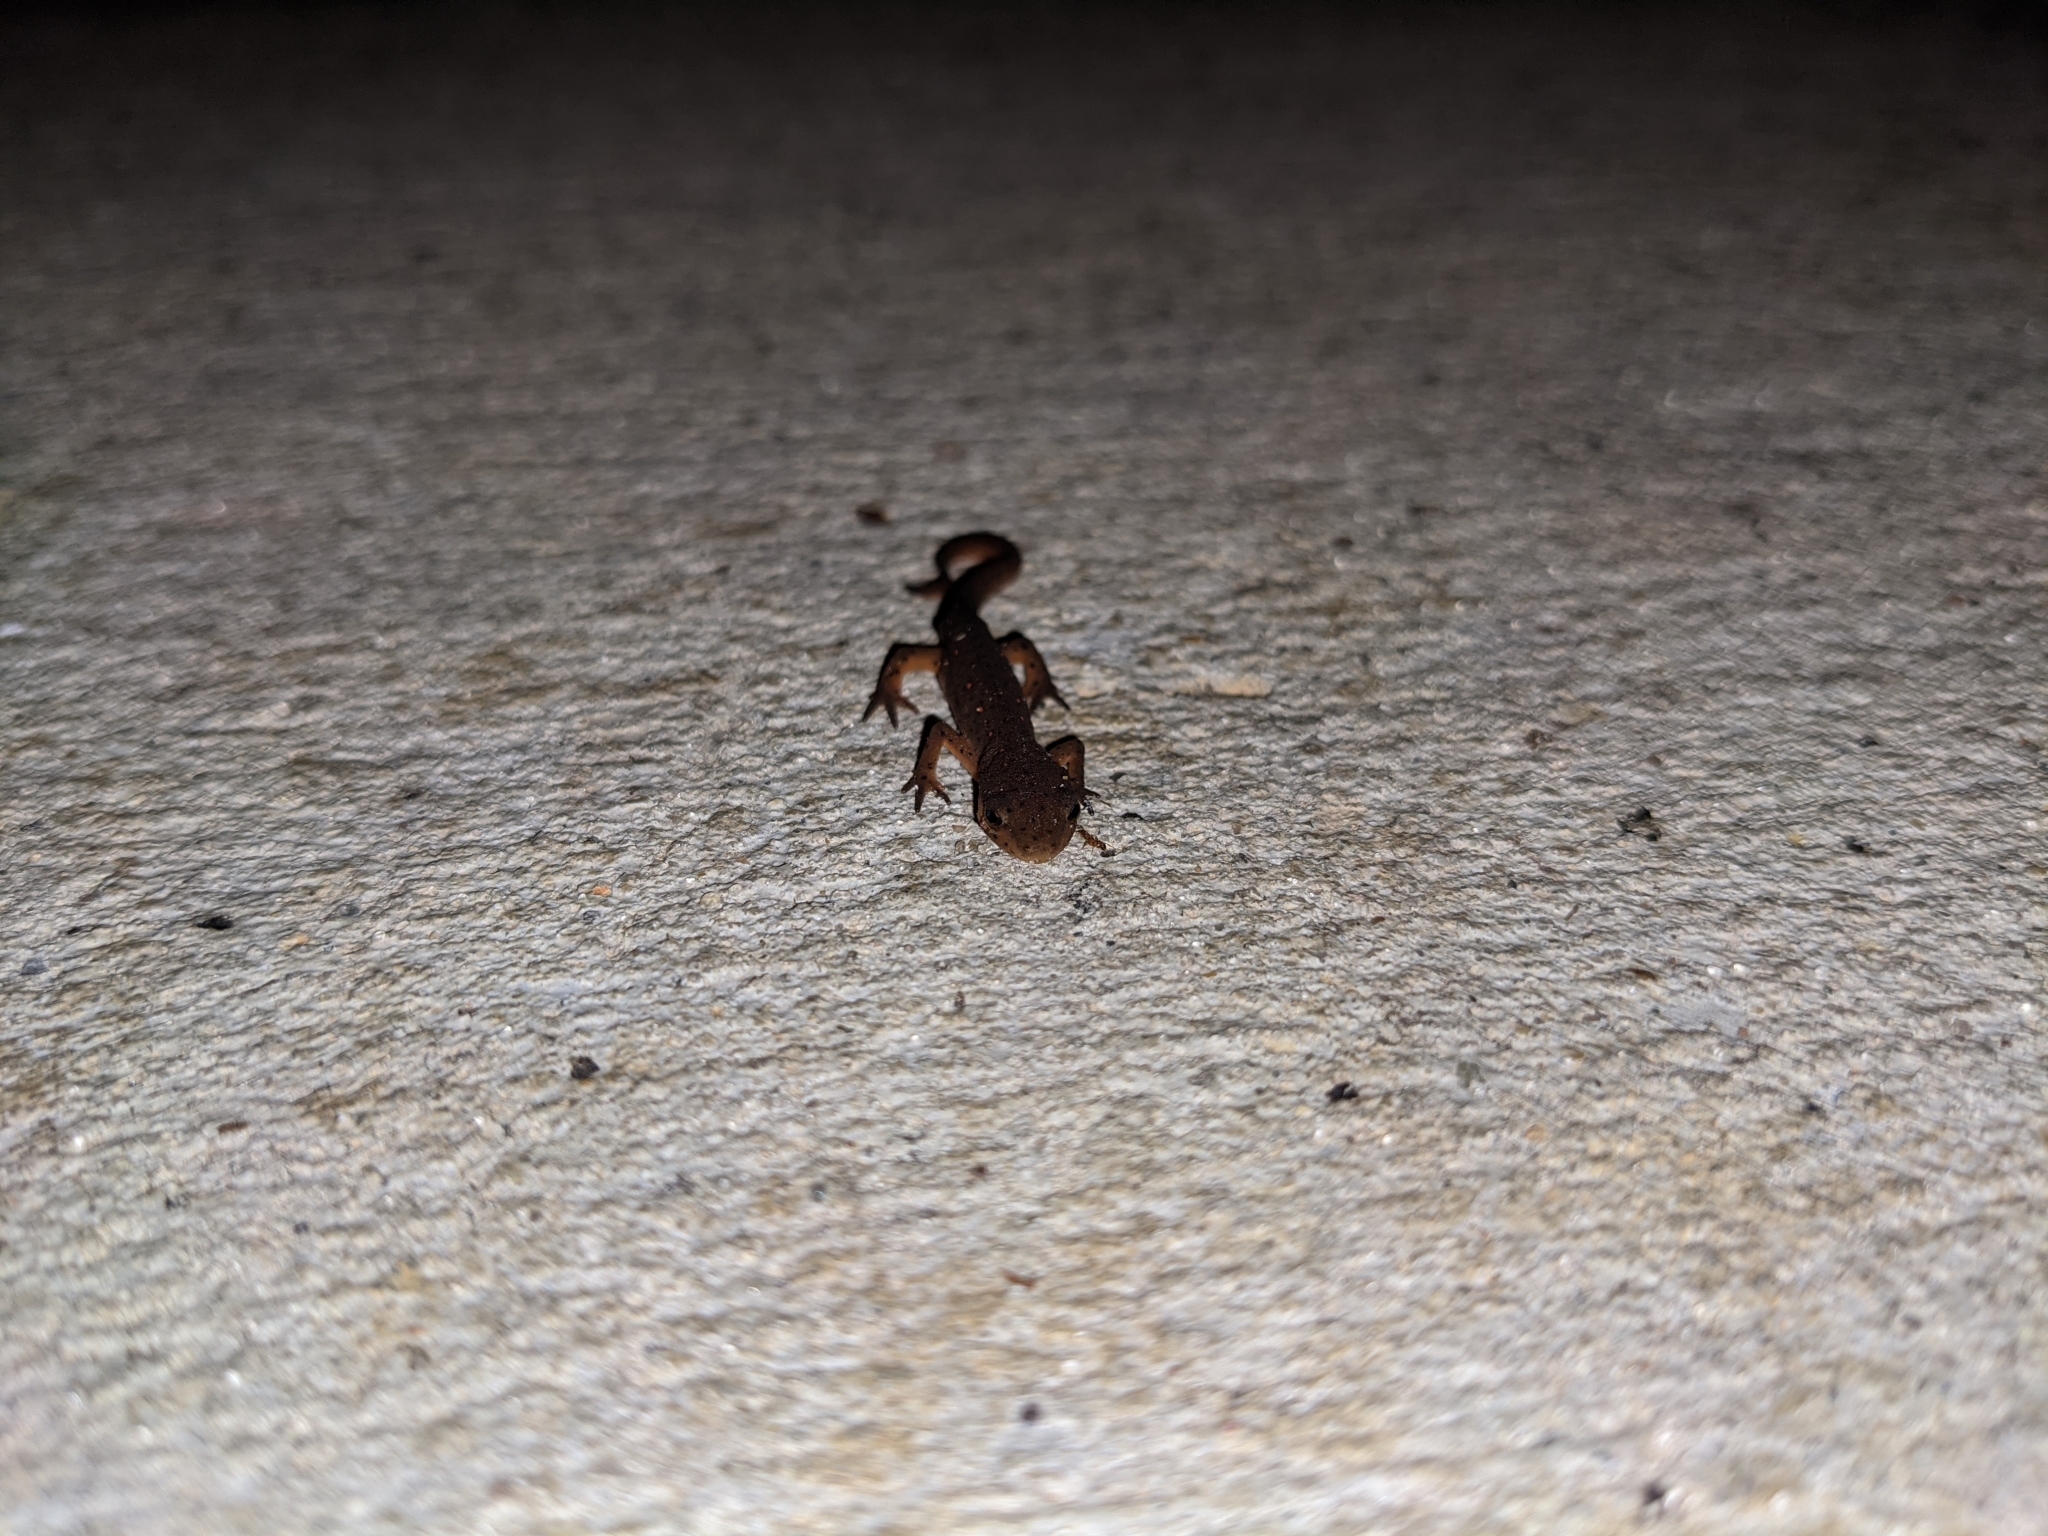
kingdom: Animalia
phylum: Chordata
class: Amphibia
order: Caudata
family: Salamandridae
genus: Notophthalmus
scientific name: Notophthalmus viridescens
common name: Eastern newt
